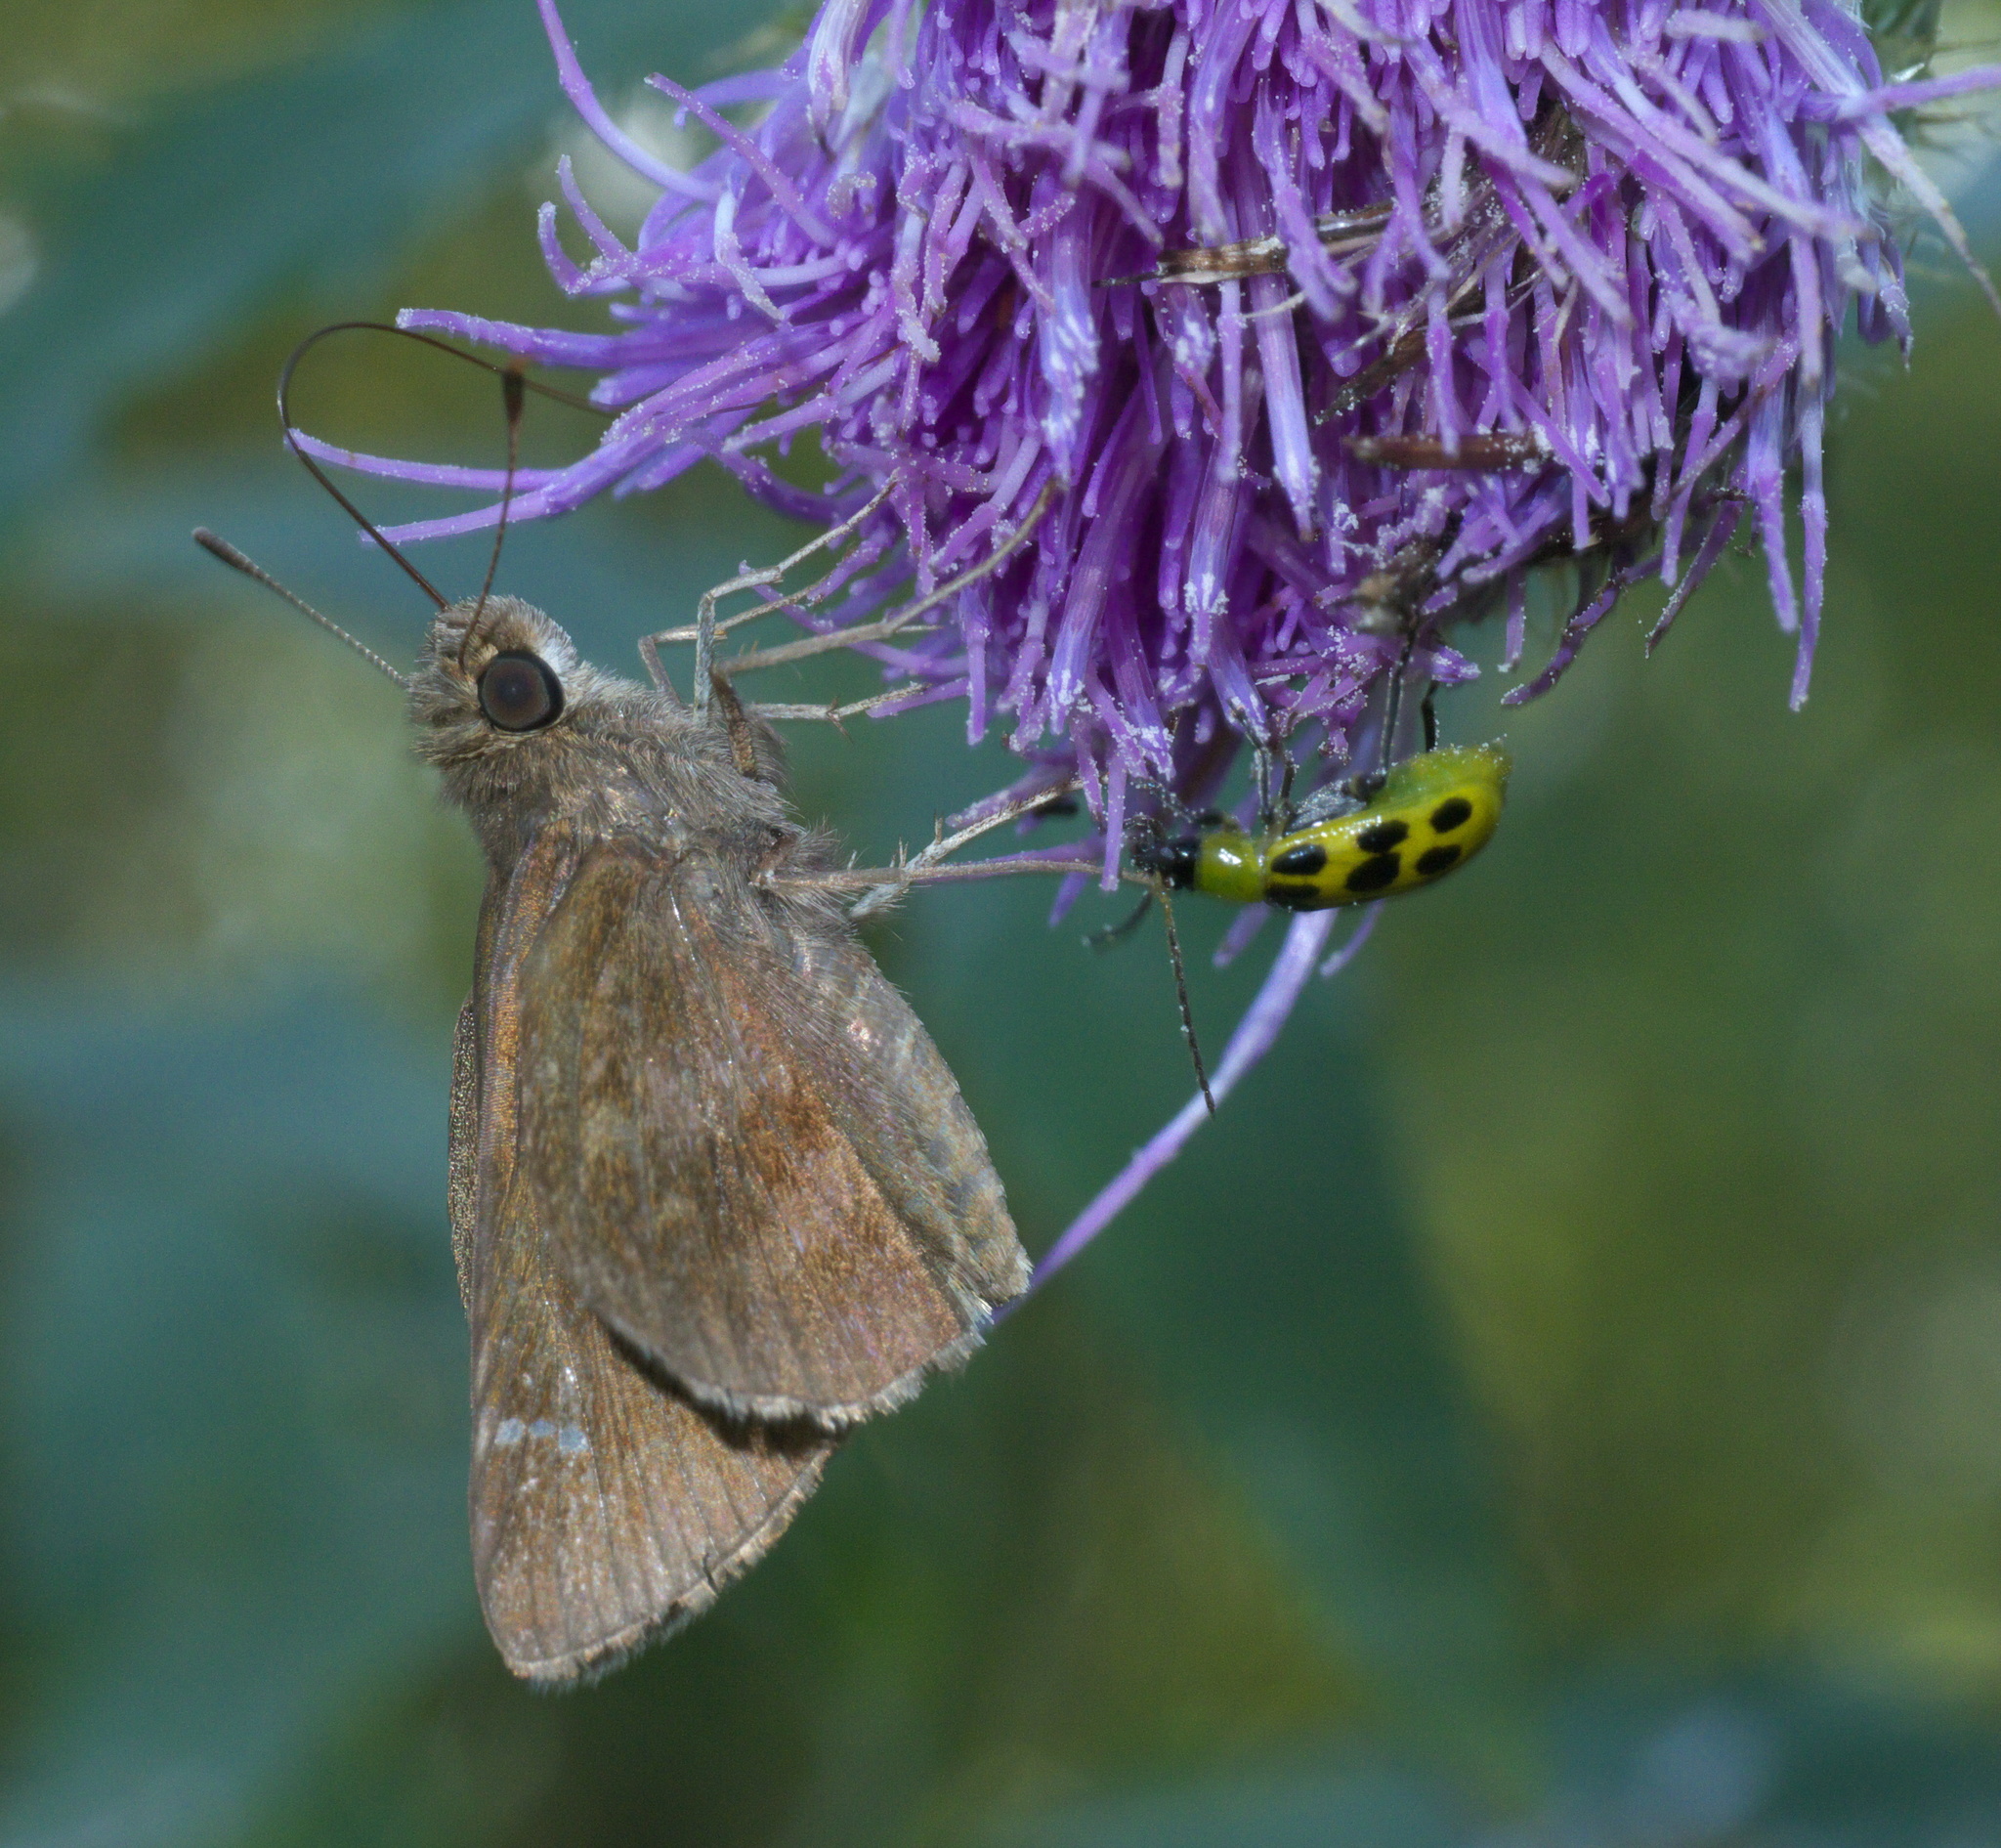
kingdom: Animalia
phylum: Arthropoda
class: Insecta
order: Lepidoptera
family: Hesperiidae
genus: Lerema
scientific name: Lerema accius
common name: Clouded skipper
